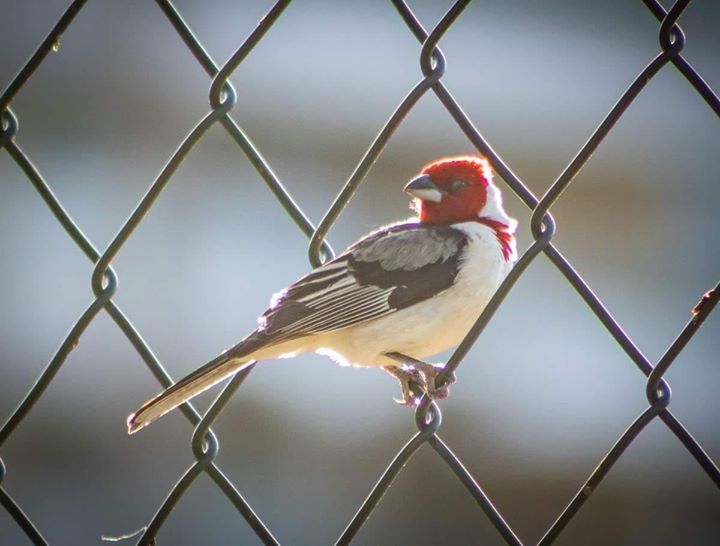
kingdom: Animalia
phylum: Chordata
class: Aves
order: Passeriformes
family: Thraupidae
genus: Paroaria
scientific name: Paroaria dominicana
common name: Red-cowled cardinal
